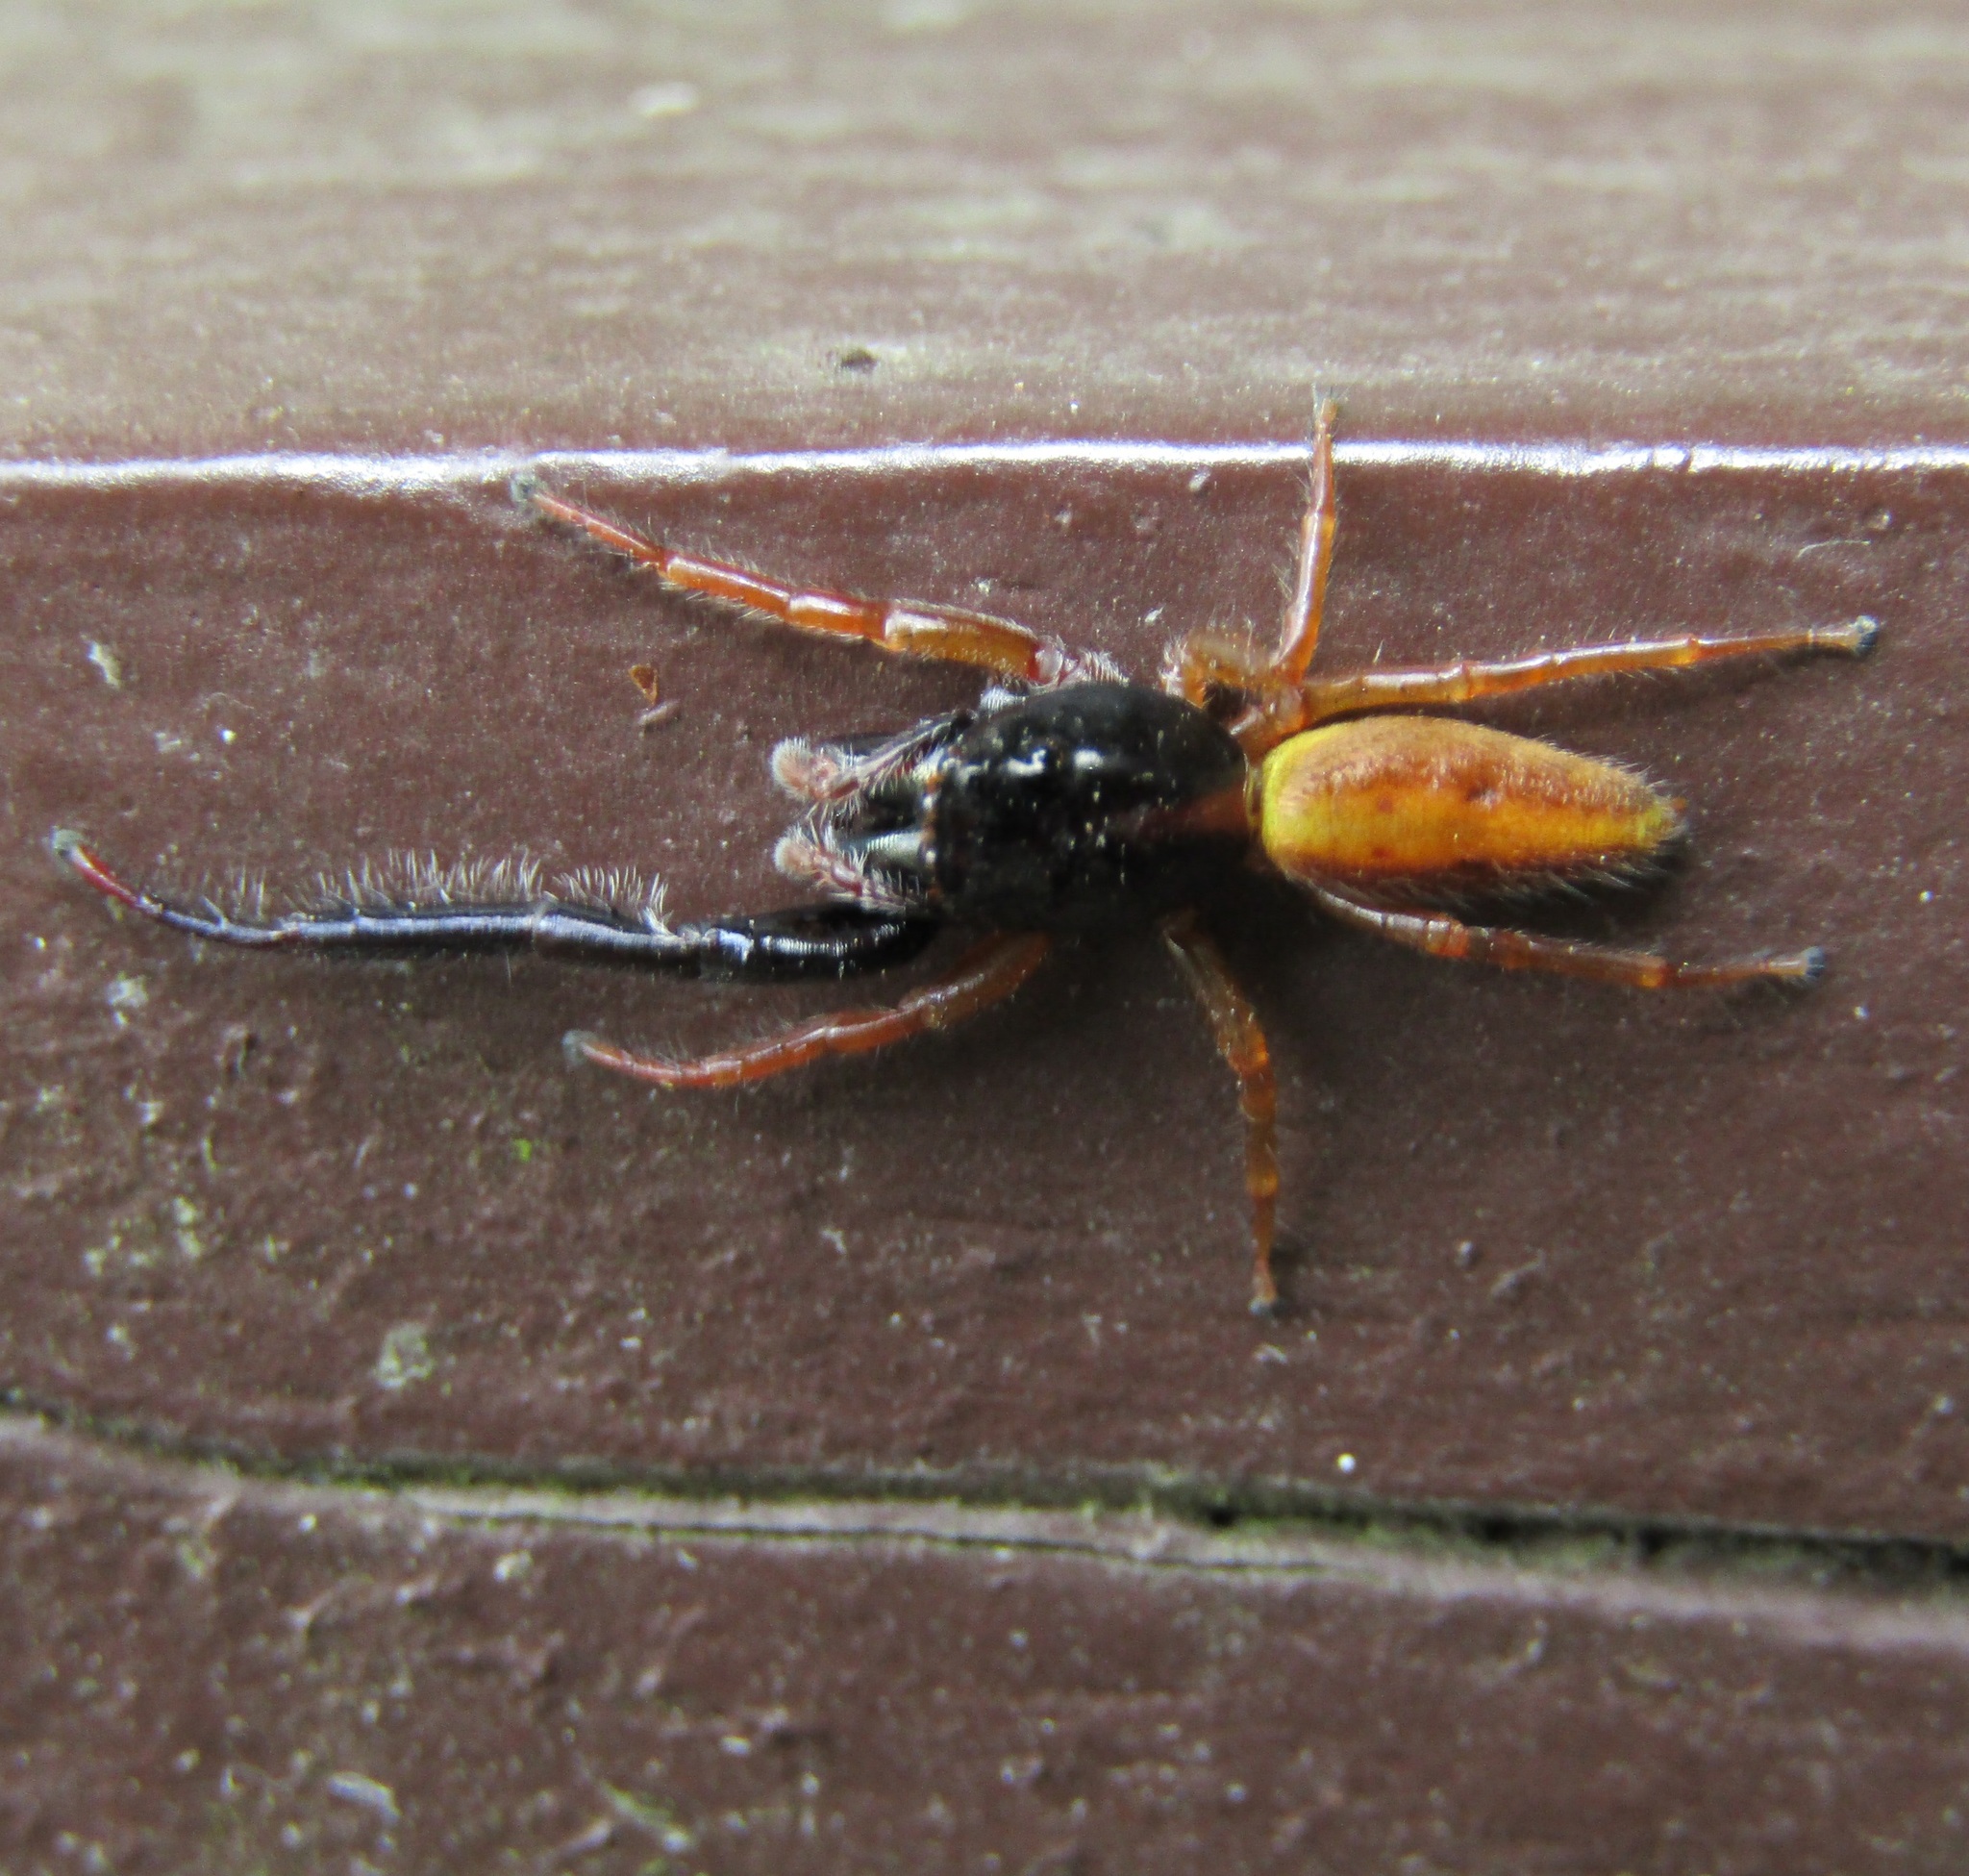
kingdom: Animalia
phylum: Arthropoda
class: Arachnida
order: Araneae
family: Salticidae
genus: Trite
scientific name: Trite planiceps
